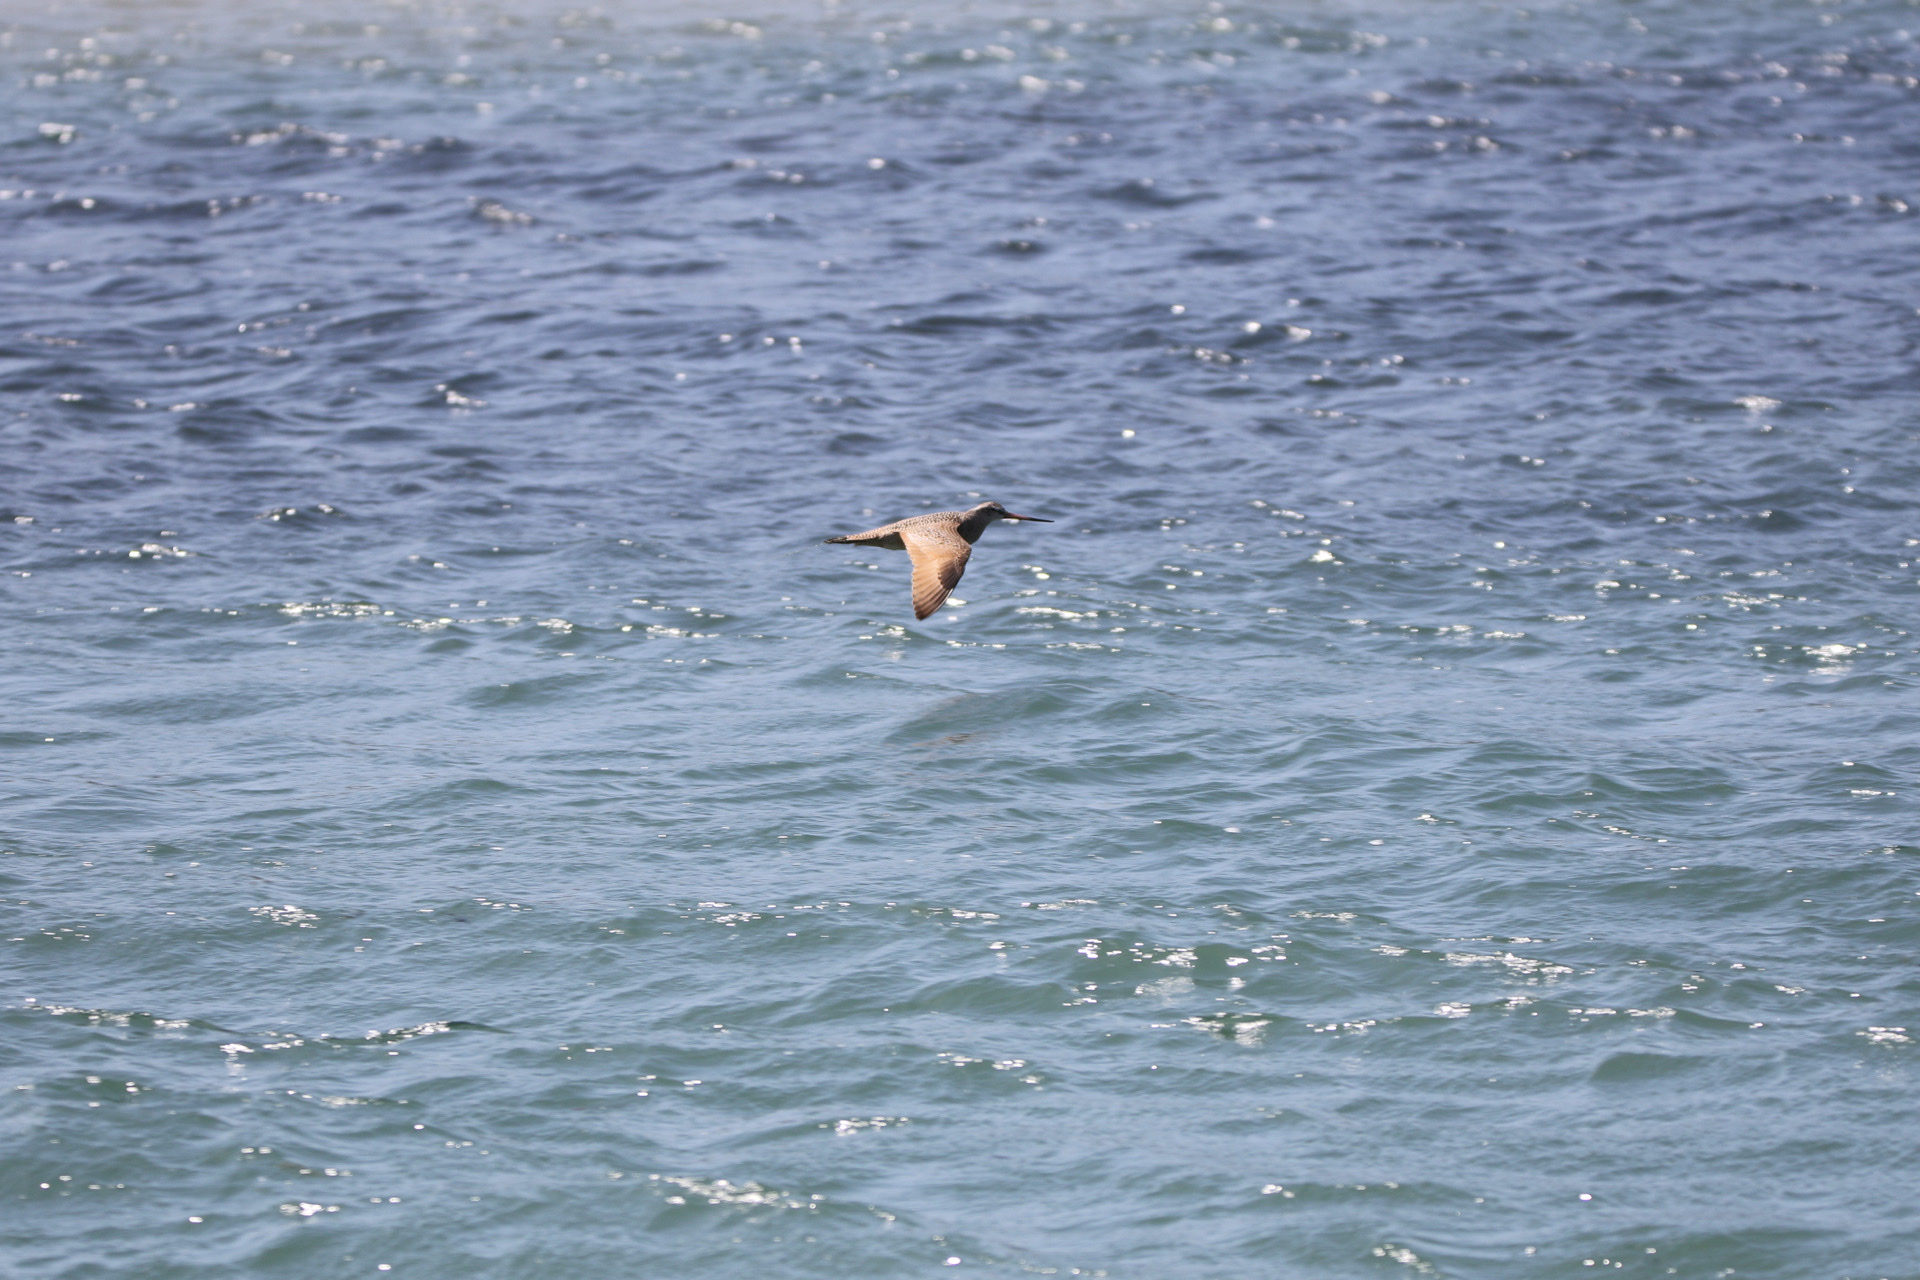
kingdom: Animalia
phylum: Chordata
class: Aves
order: Charadriiformes
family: Scolopacidae
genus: Limosa
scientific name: Limosa fedoa
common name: Marbled godwit
